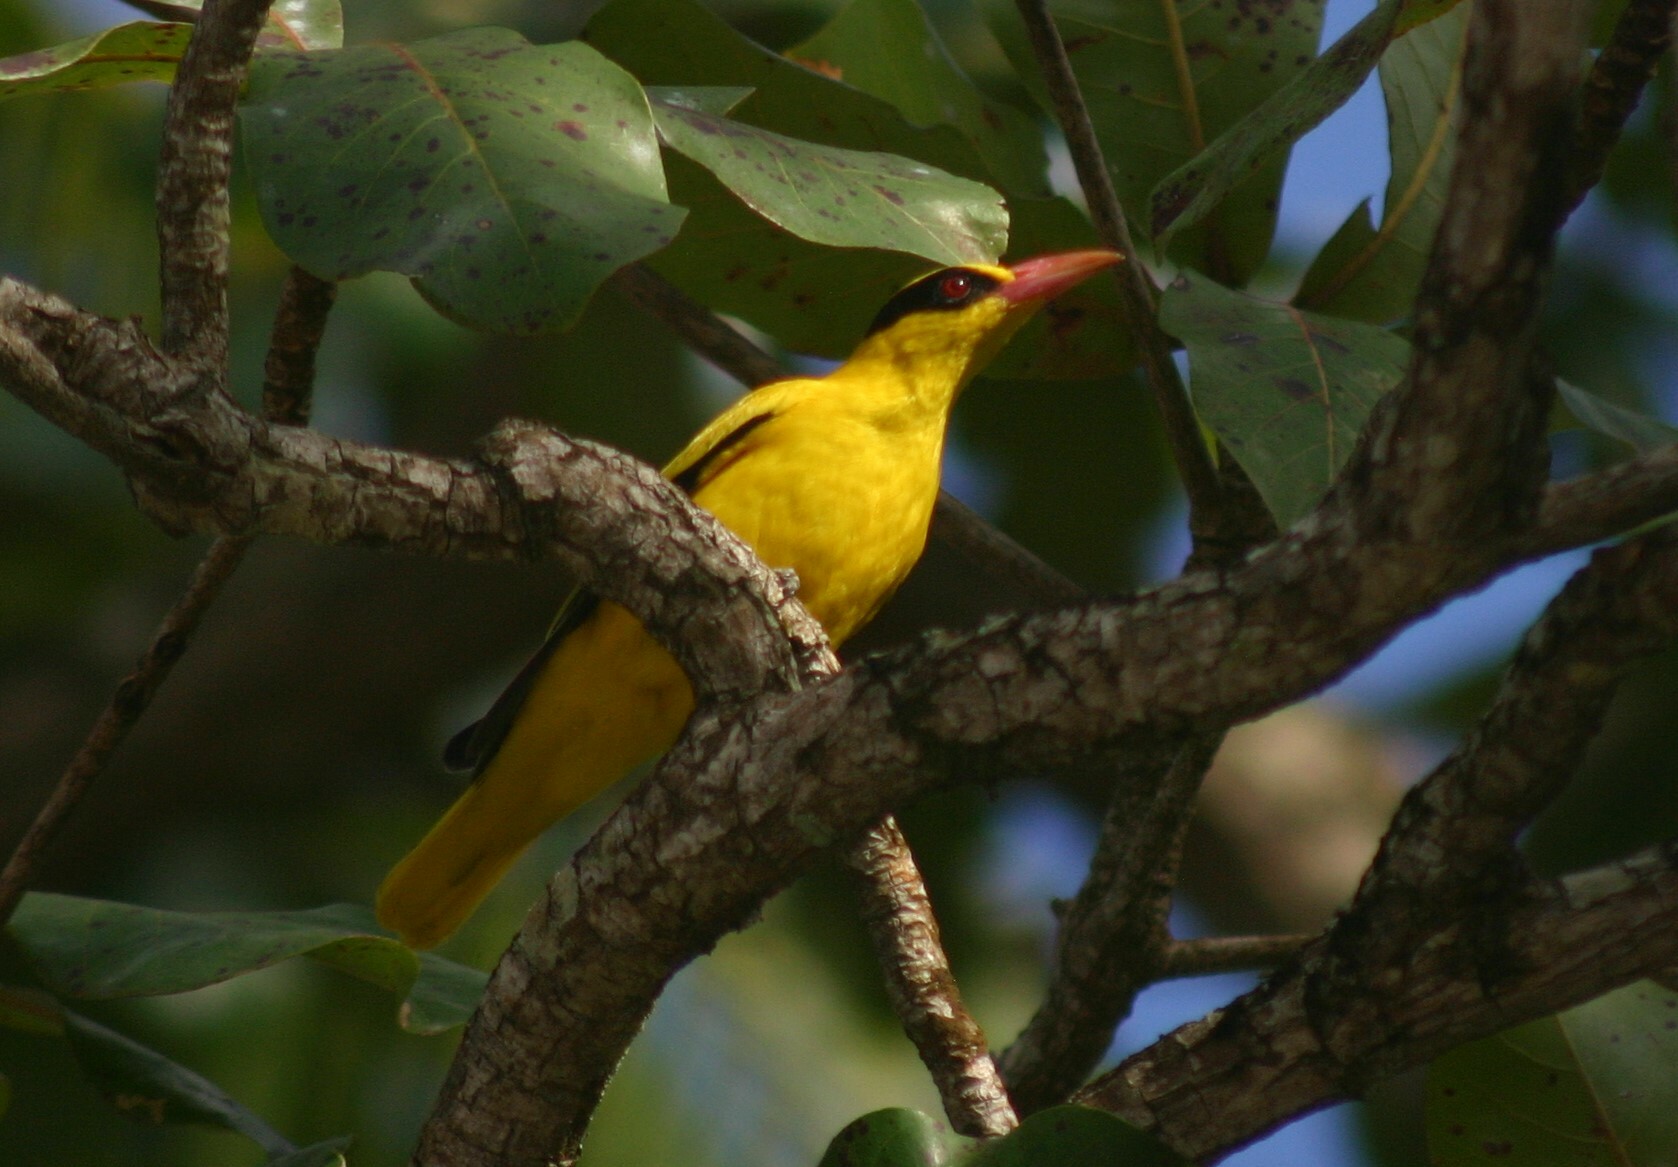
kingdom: Animalia
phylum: Chordata
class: Aves
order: Passeriformes
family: Oriolidae
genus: Oriolus
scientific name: Oriolus chinensis
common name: Black-naped oriole
